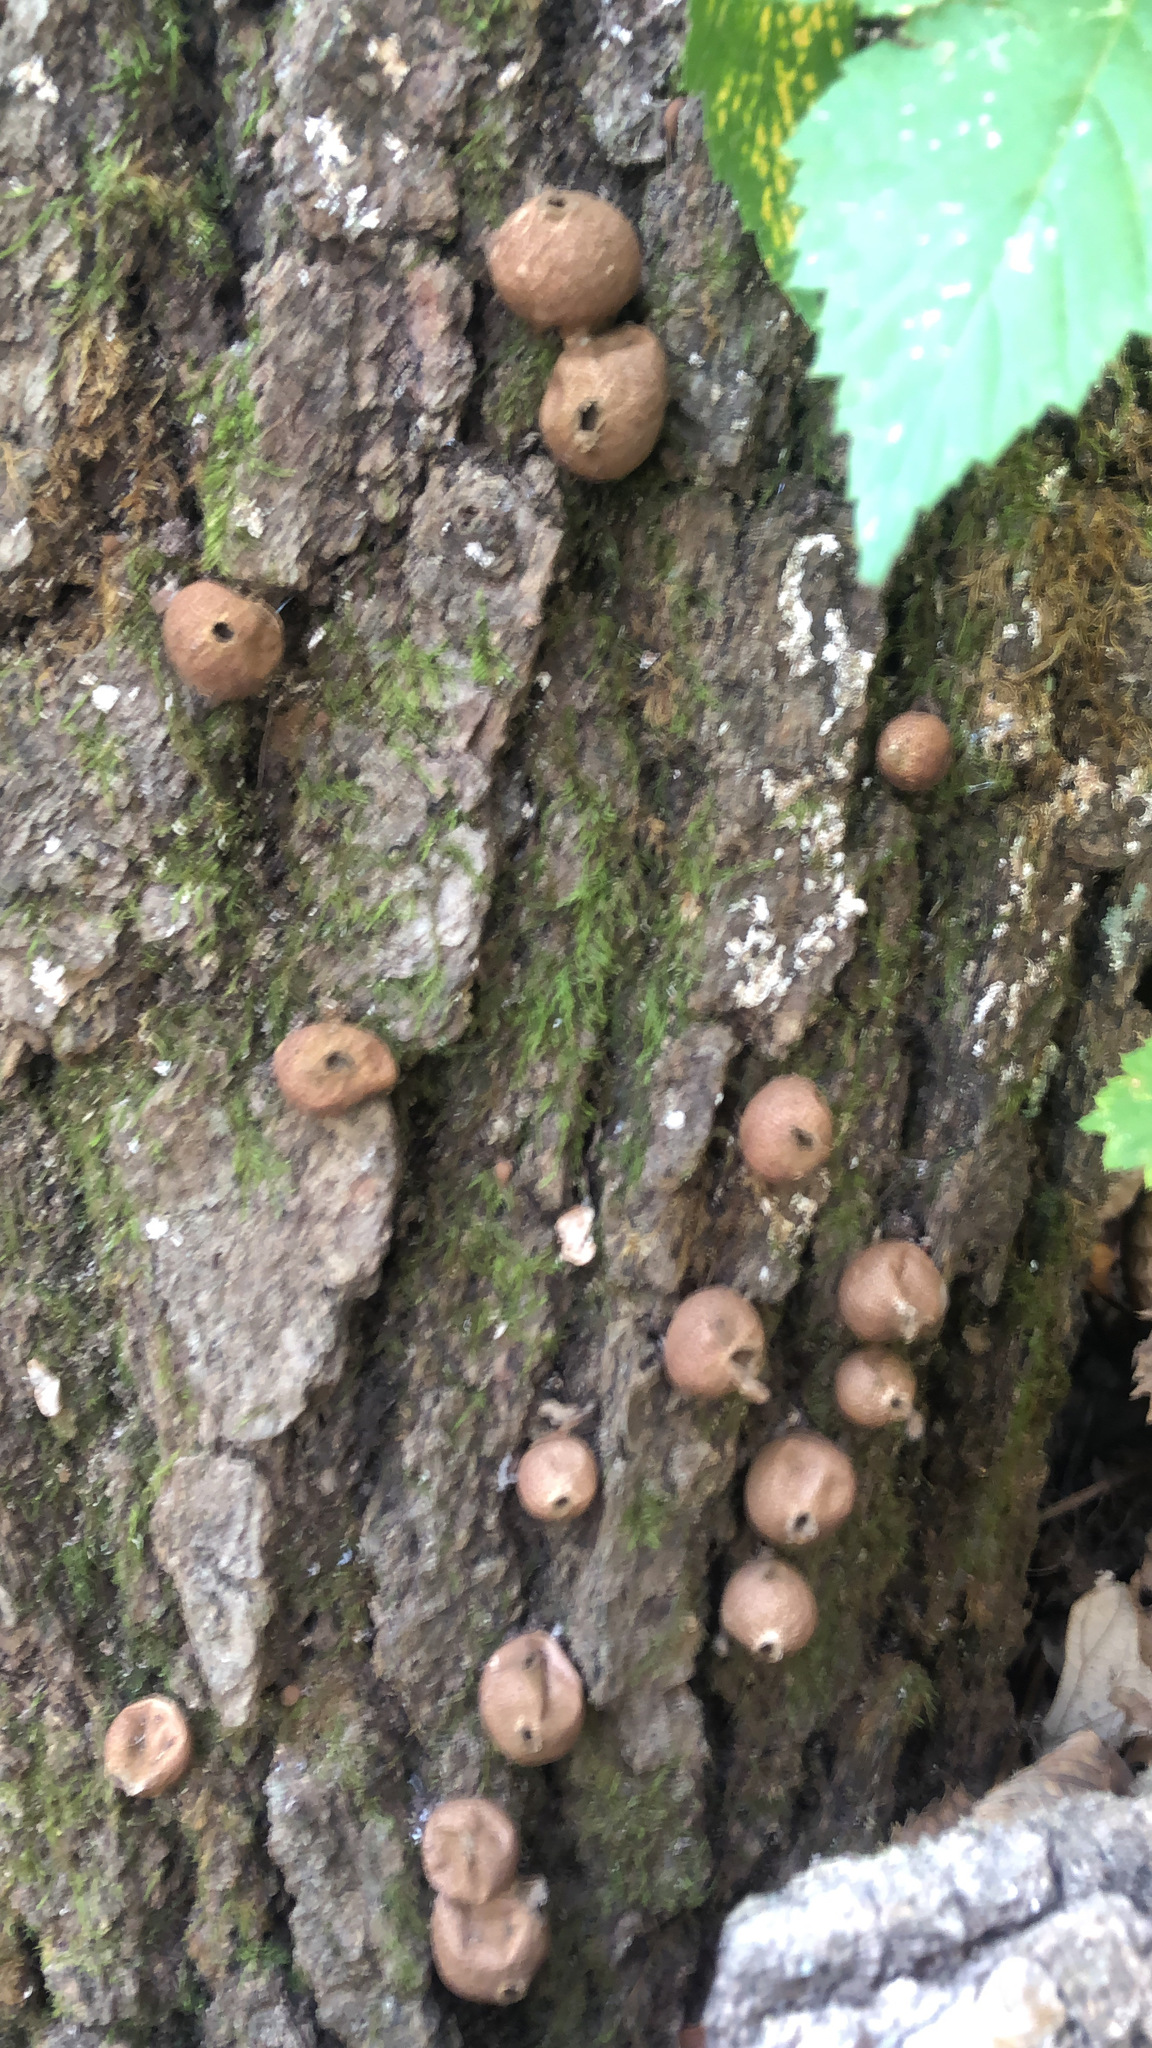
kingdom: Fungi
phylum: Basidiomycota
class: Agaricomycetes
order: Agaricales
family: Lycoperdaceae
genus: Apioperdon
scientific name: Apioperdon pyriforme
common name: Pear-shaped puffball
